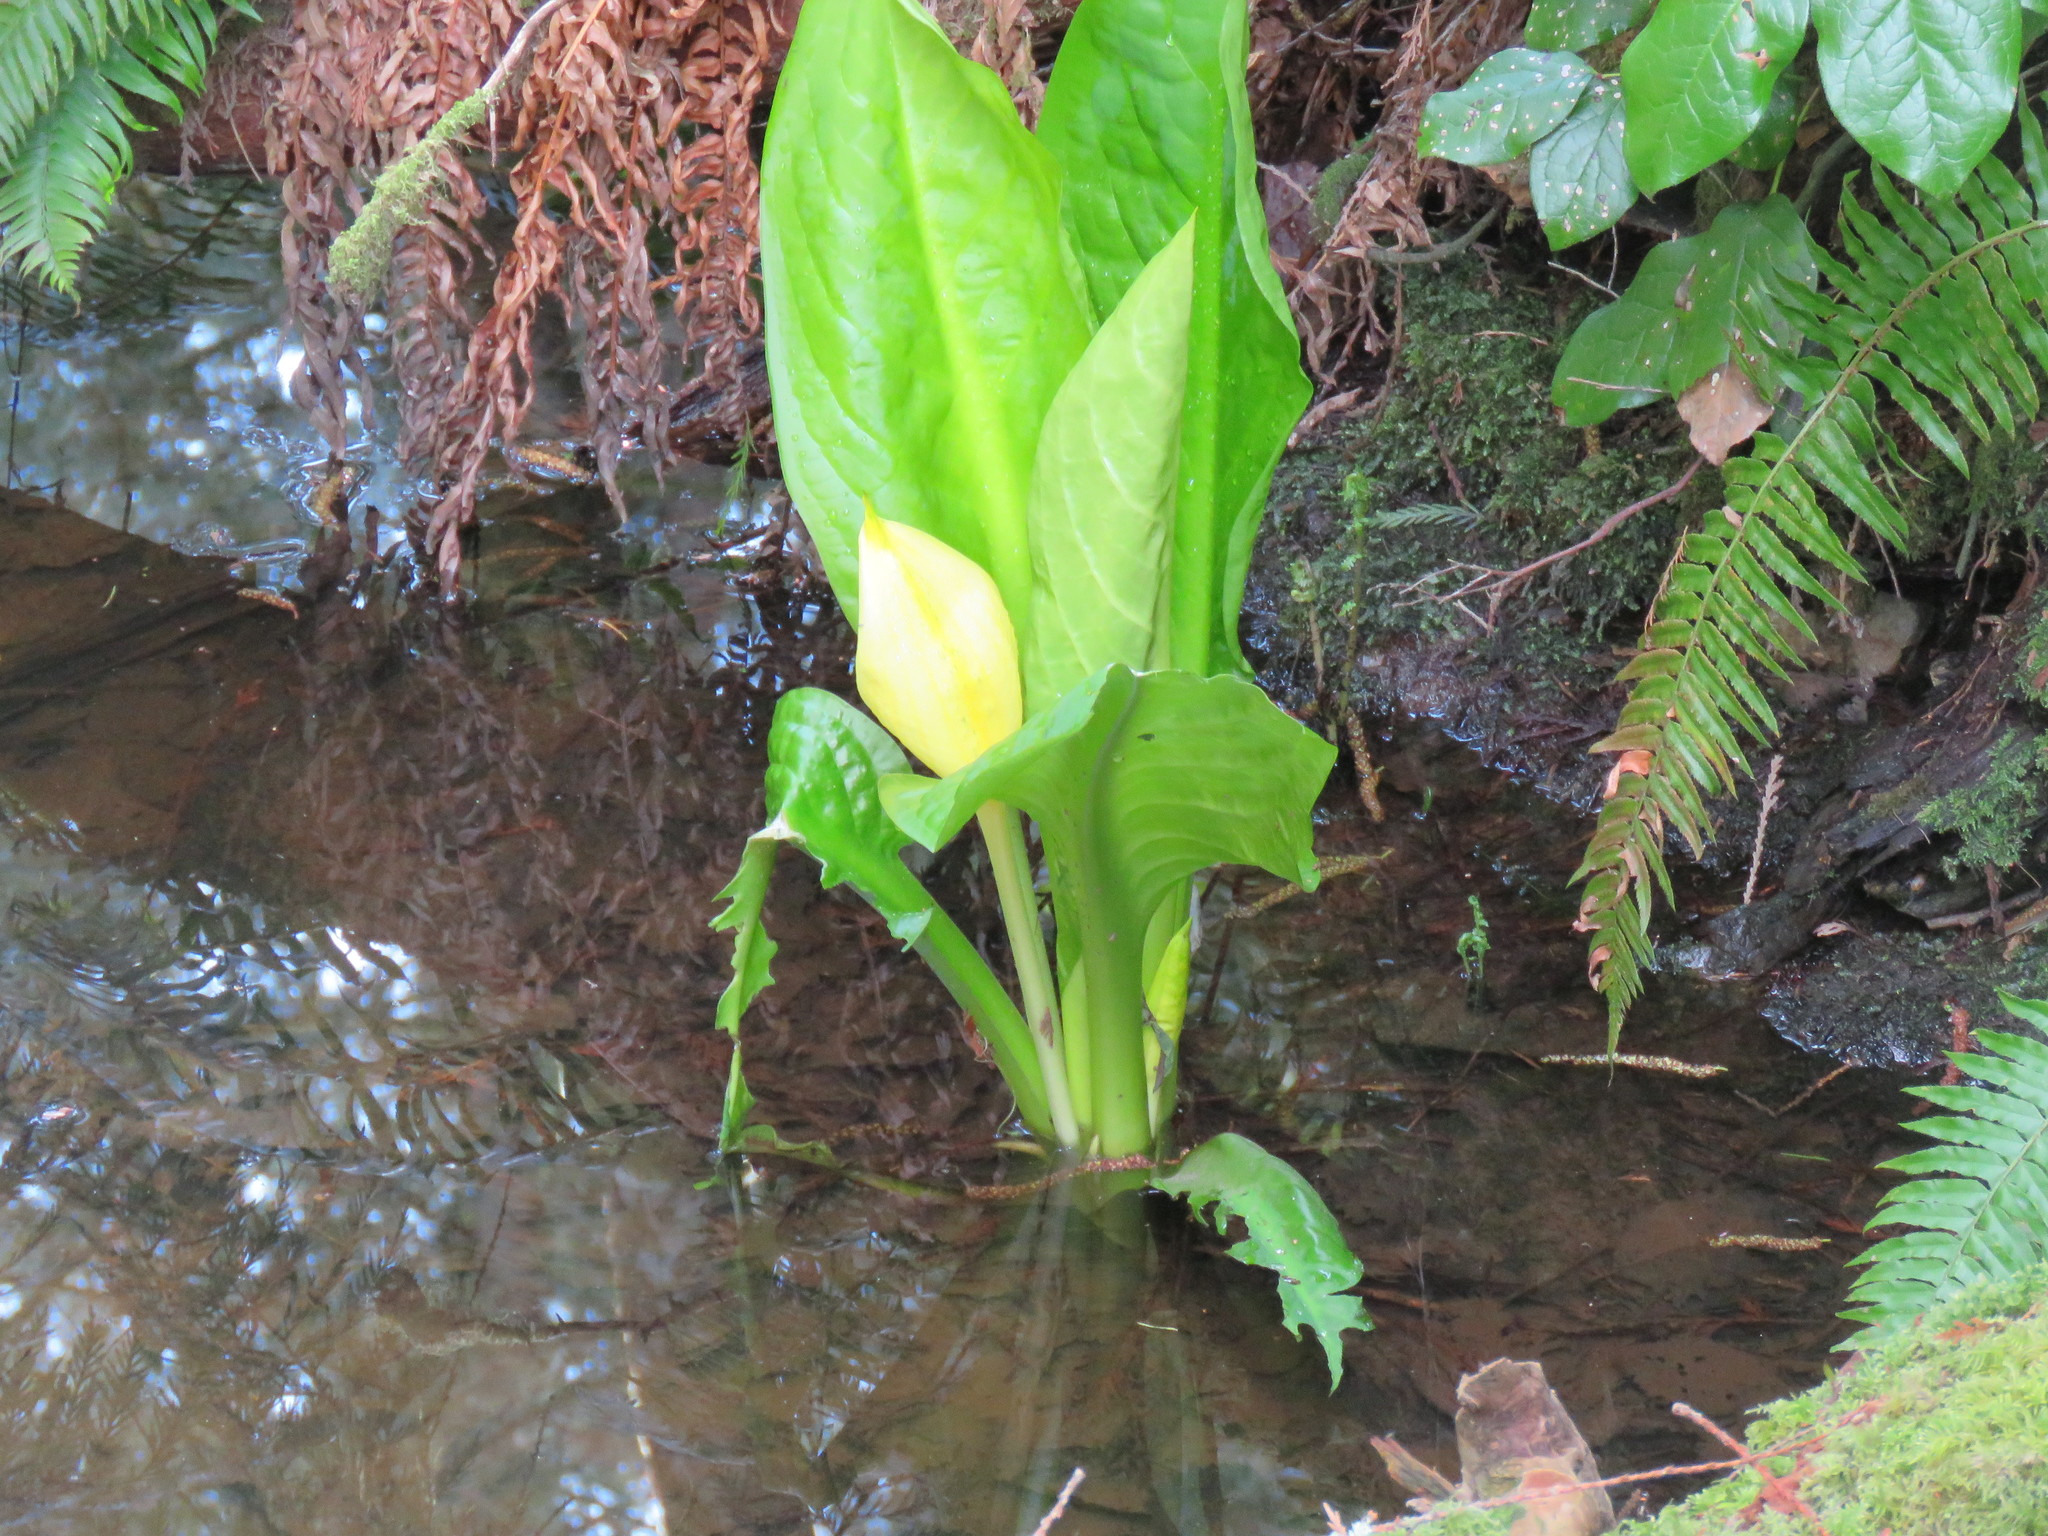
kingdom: Plantae
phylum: Tracheophyta
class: Liliopsida
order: Alismatales
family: Araceae
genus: Lysichiton
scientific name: Lysichiton americanus
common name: American skunk cabbage
